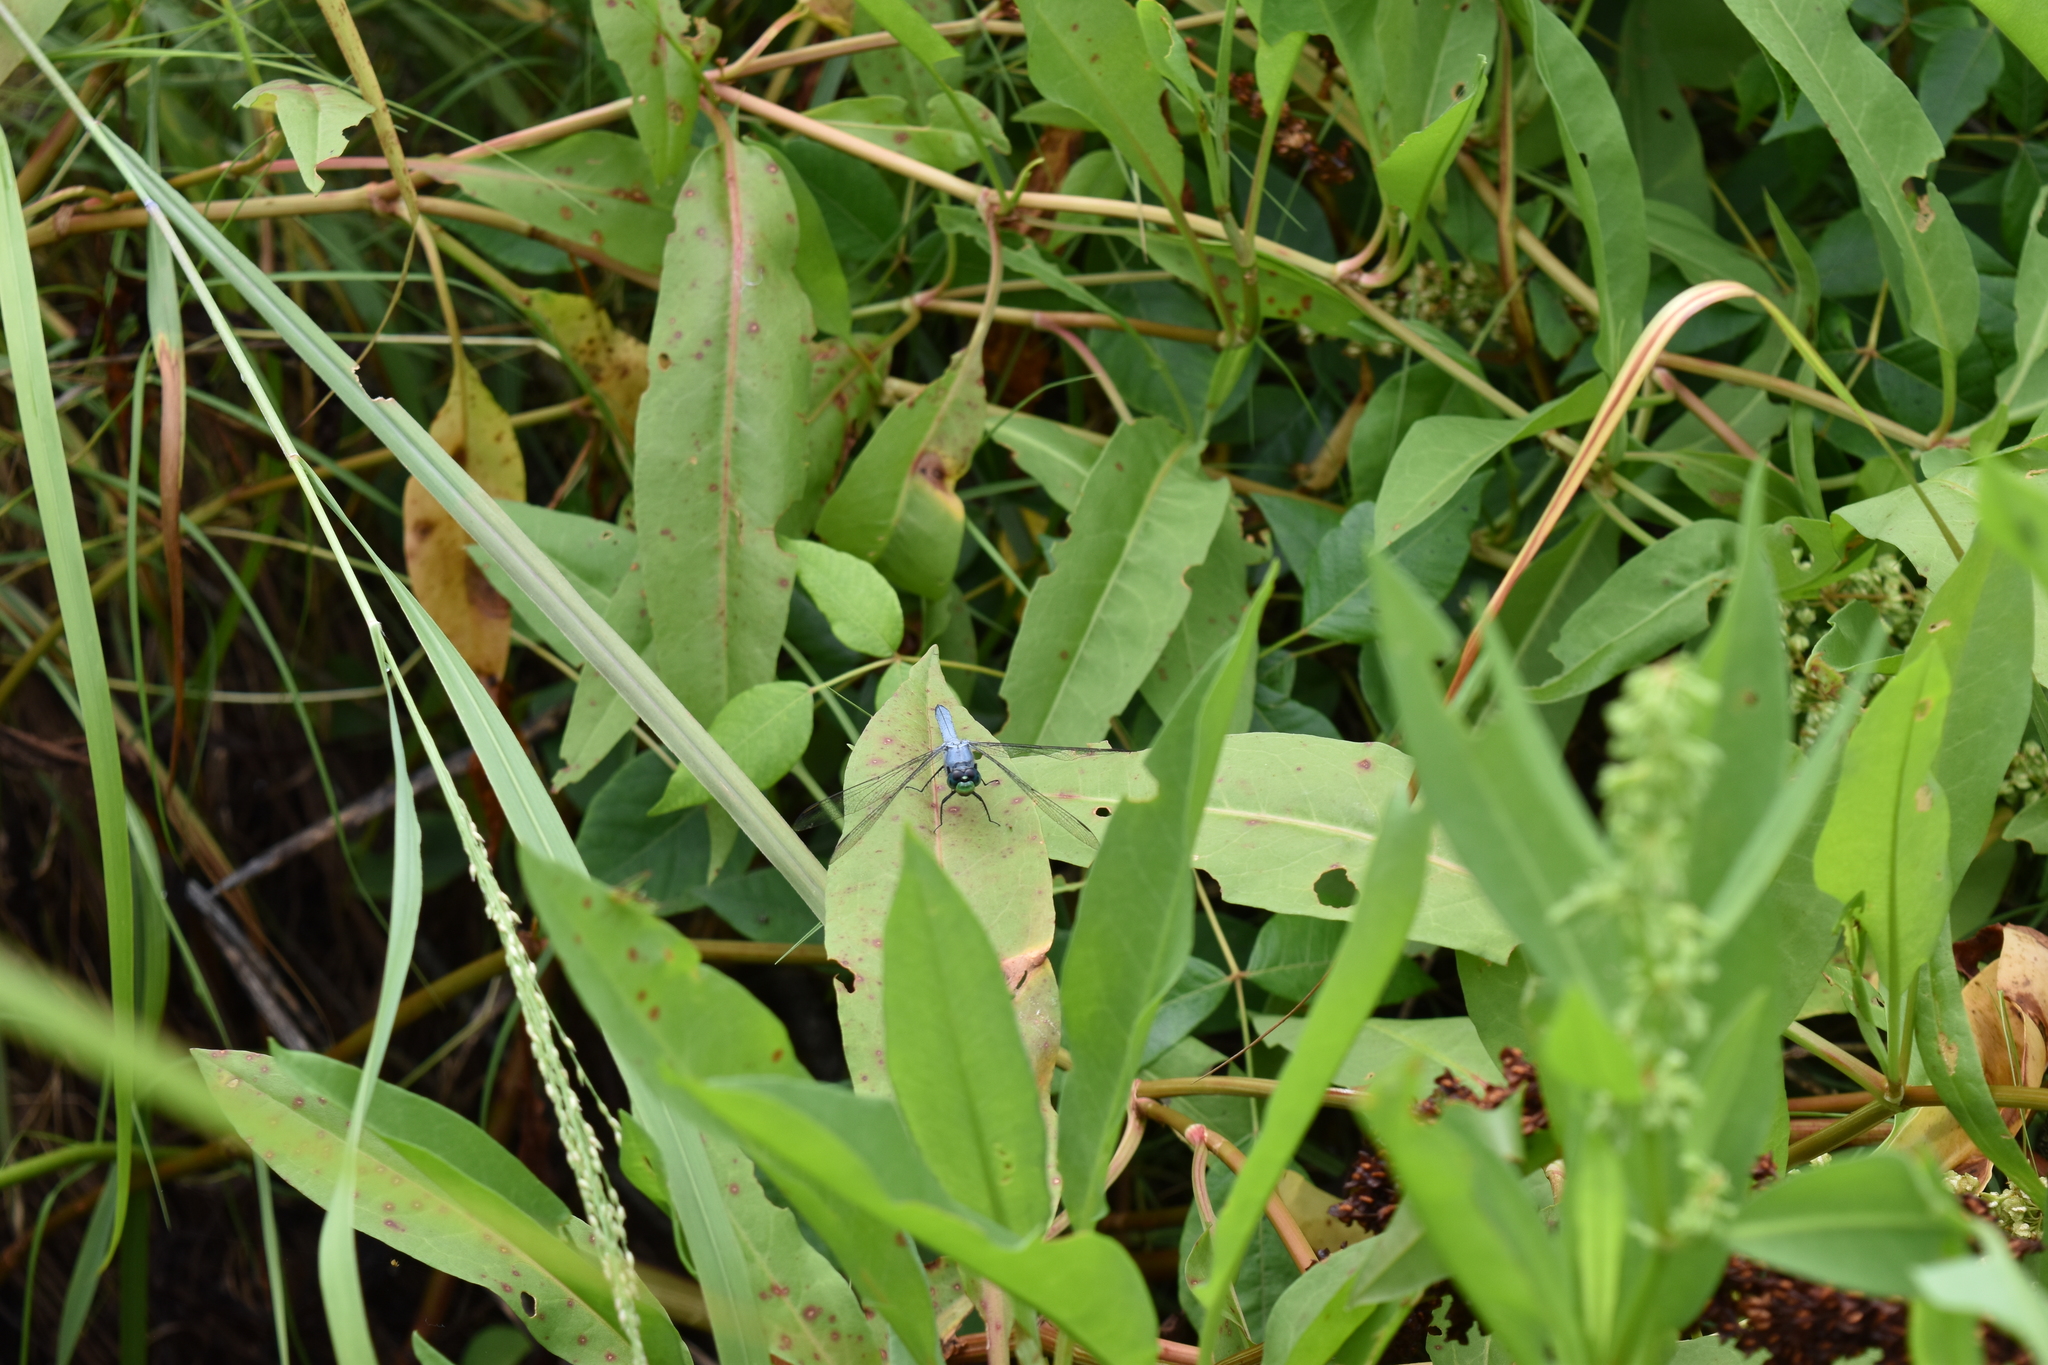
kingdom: Animalia
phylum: Arthropoda
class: Insecta
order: Odonata
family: Libellulidae
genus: Erythemis
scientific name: Erythemis simplicicollis
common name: Eastern pondhawk
